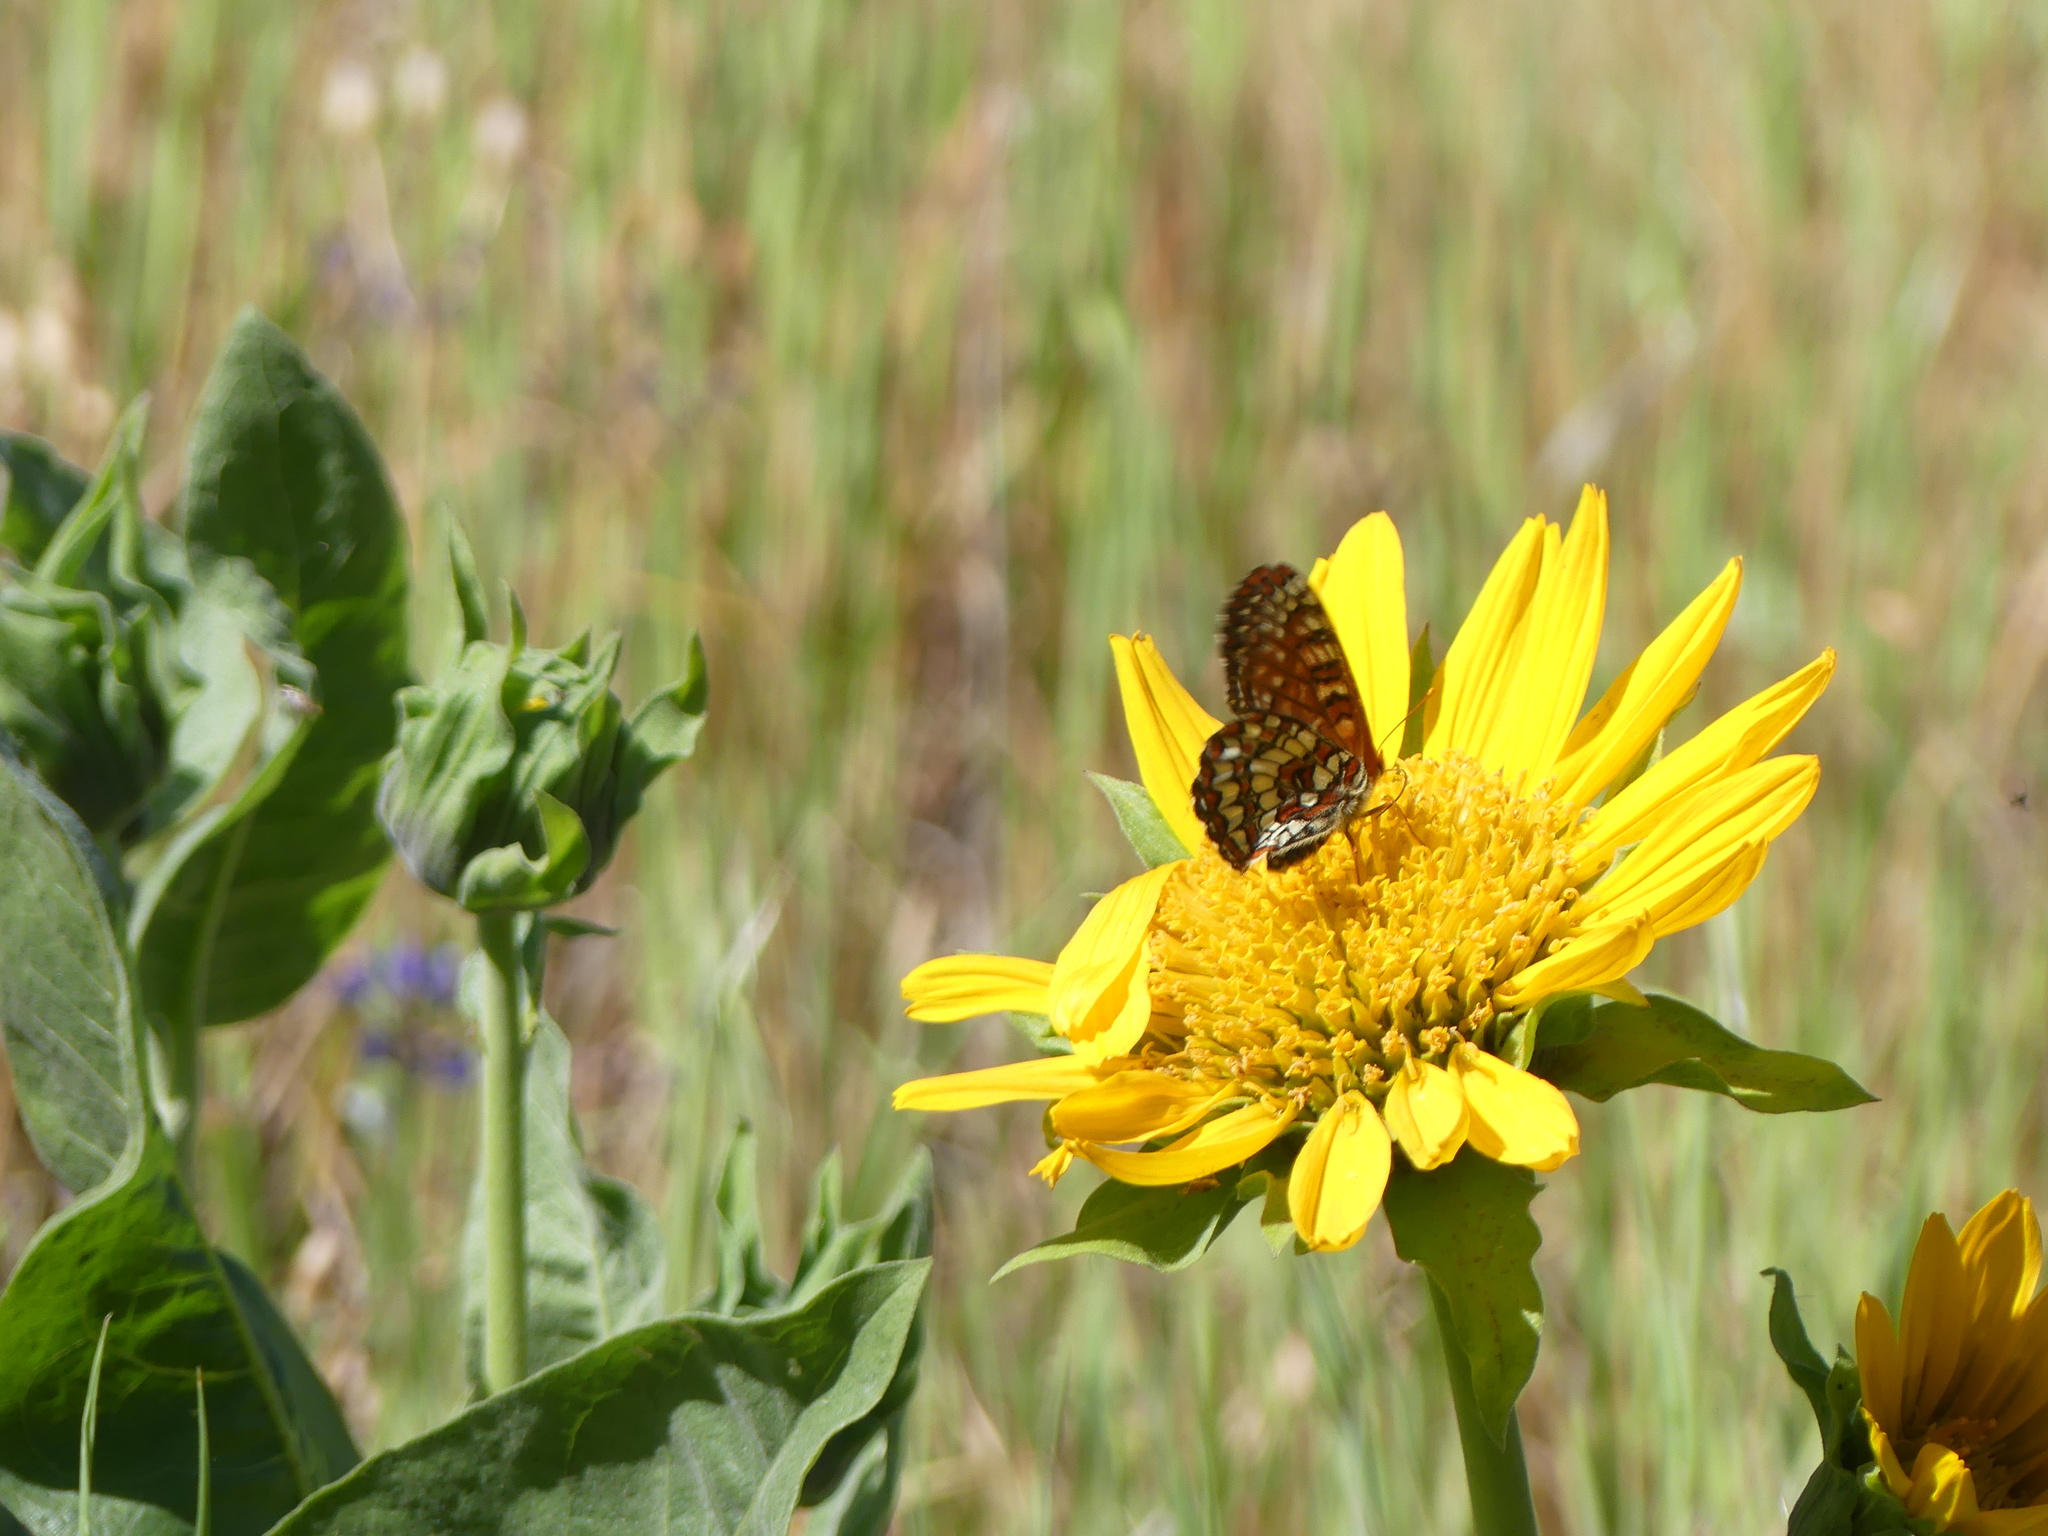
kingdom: Animalia
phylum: Arthropoda
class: Insecta
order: Lepidoptera
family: Nymphalidae
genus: Occidryas
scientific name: Occidryas chalcedona
